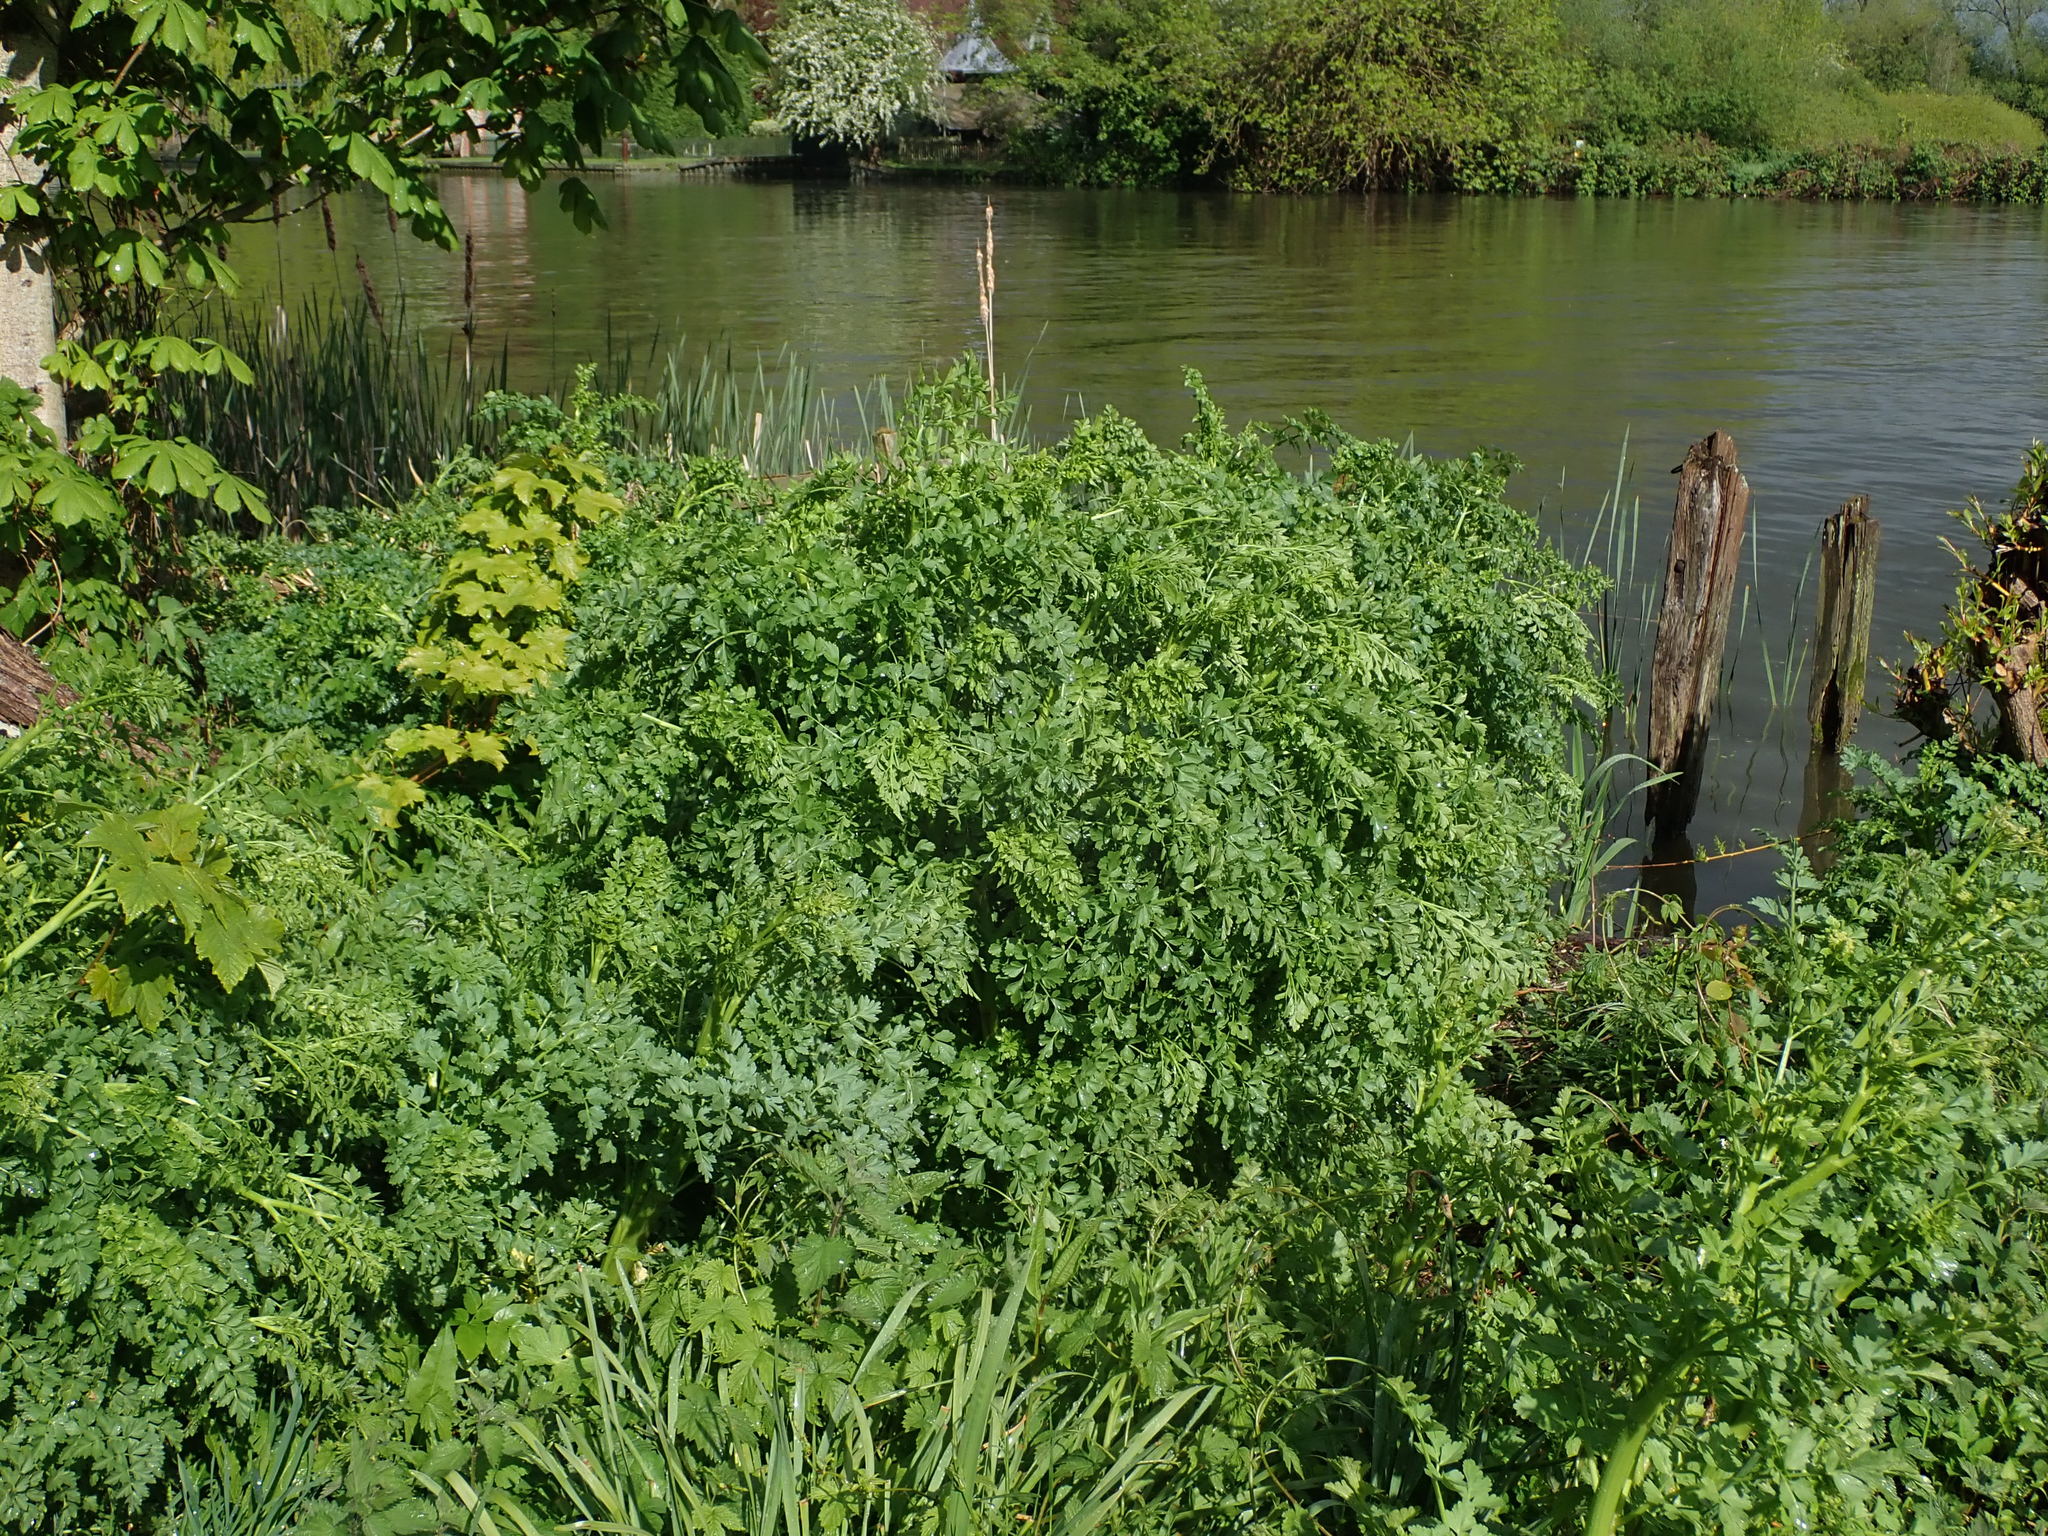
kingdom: Plantae
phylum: Tracheophyta
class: Magnoliopsida
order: Apiales
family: Apiaceae
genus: Oenanthe
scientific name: Oenanthe crocata
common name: Hemlock water-dropwort
